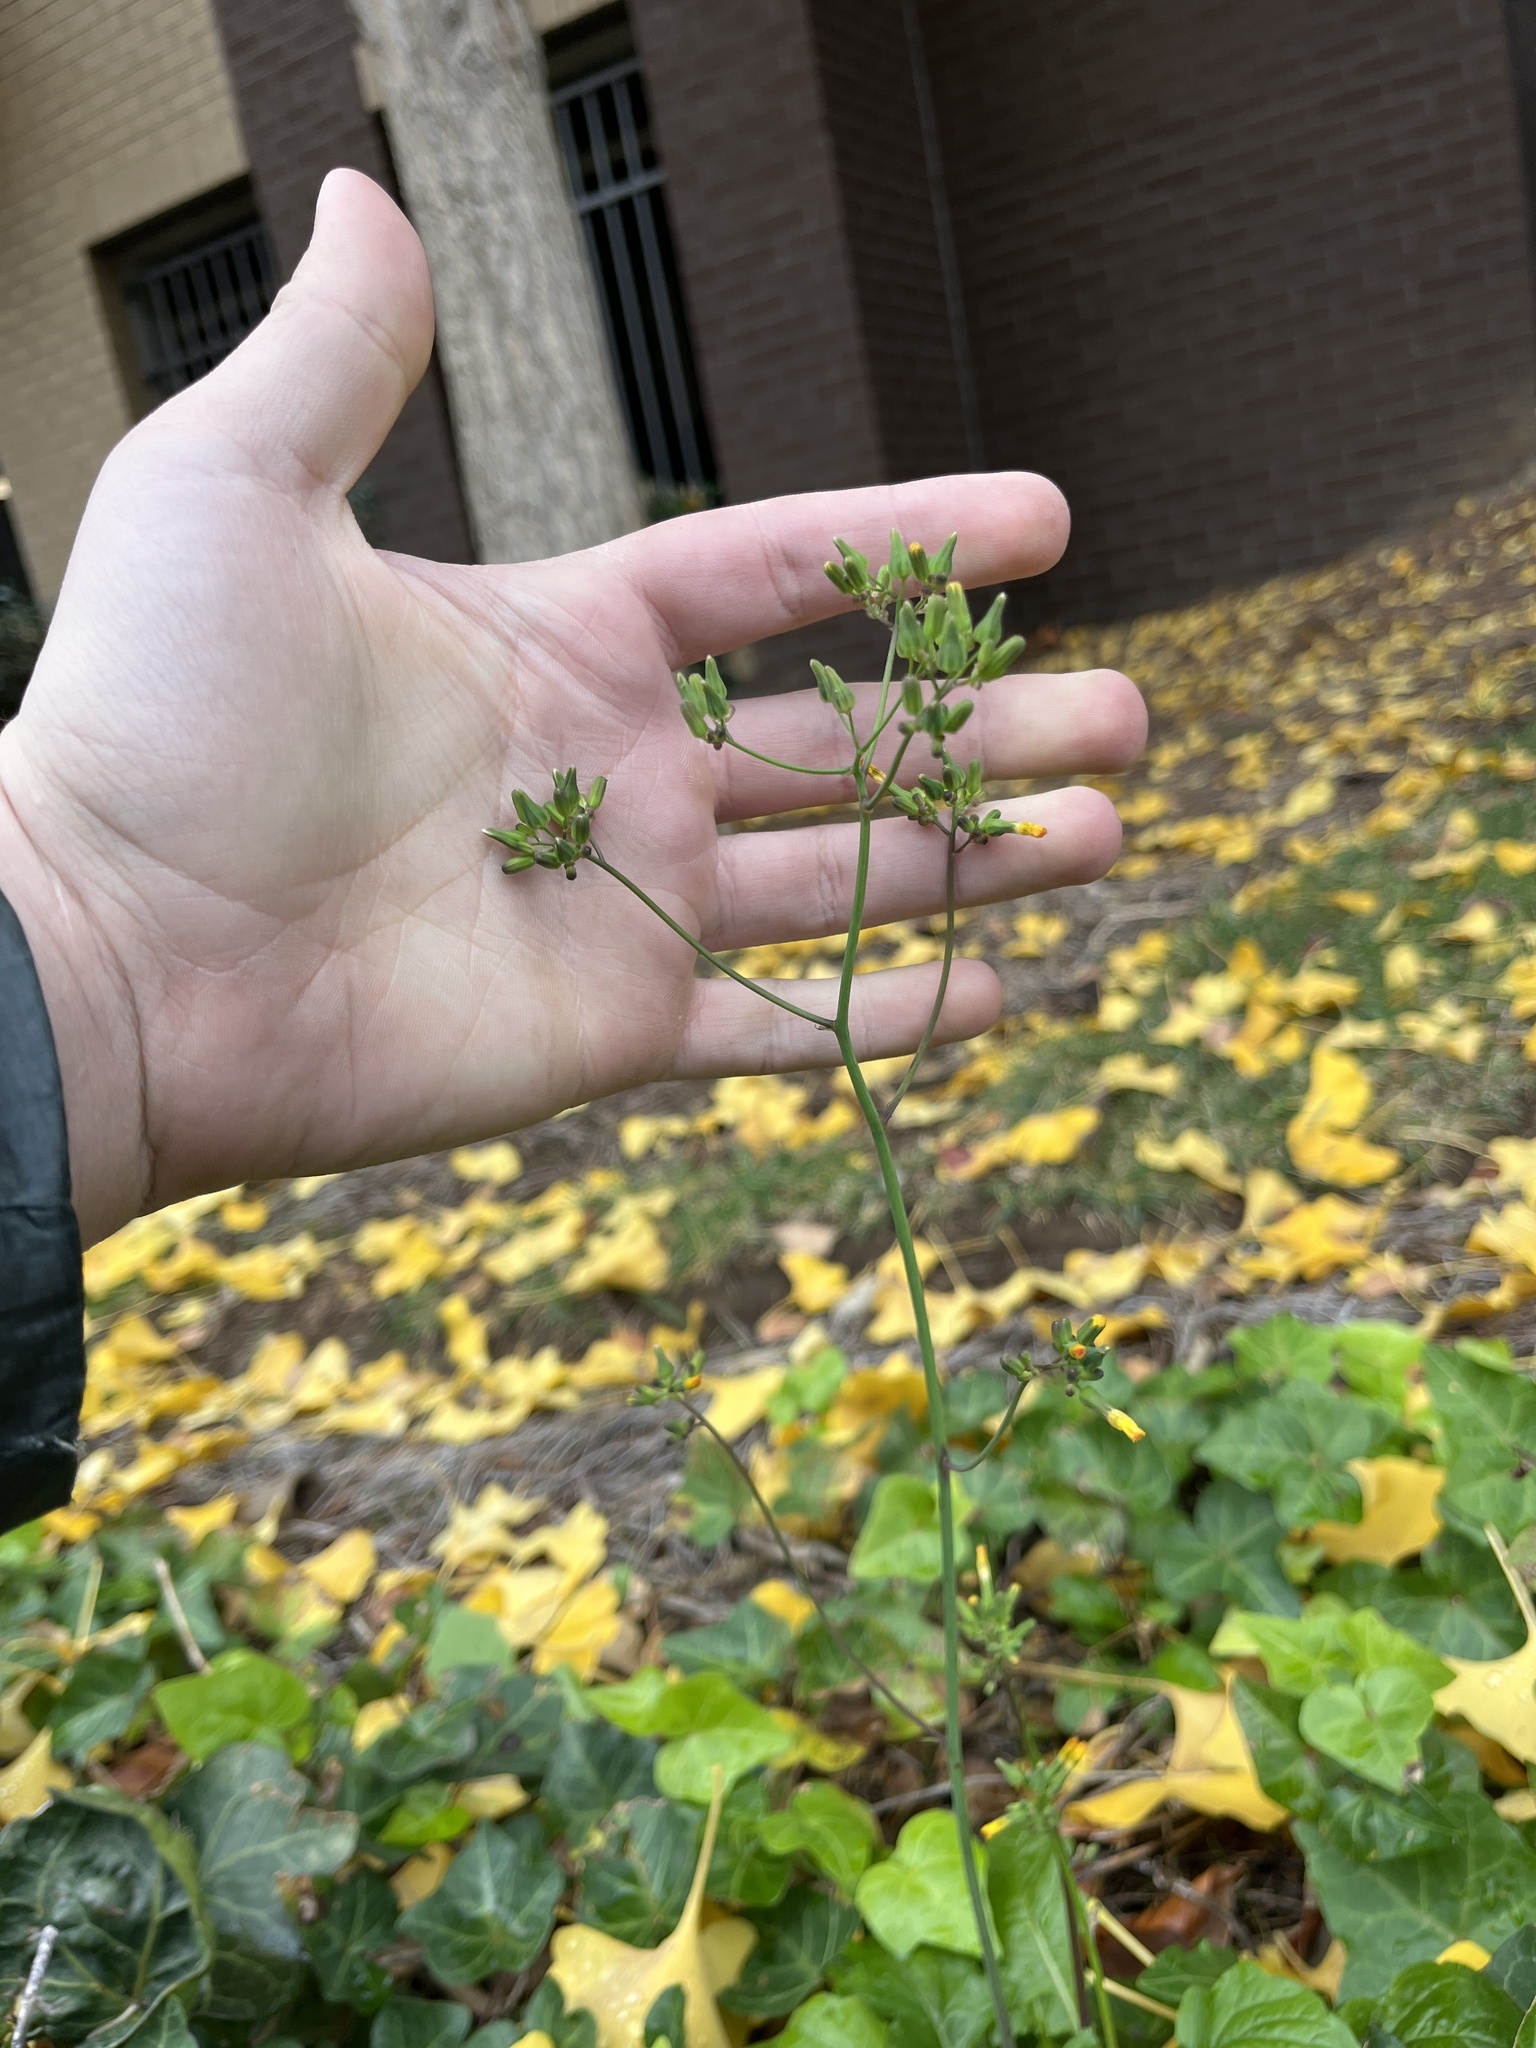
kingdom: Plantae
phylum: Tracheophyta
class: Magnoliopsida
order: Asterales
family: Asteraceae
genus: Youngia
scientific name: Youngia japonica
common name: Oriental false hawksbeard
